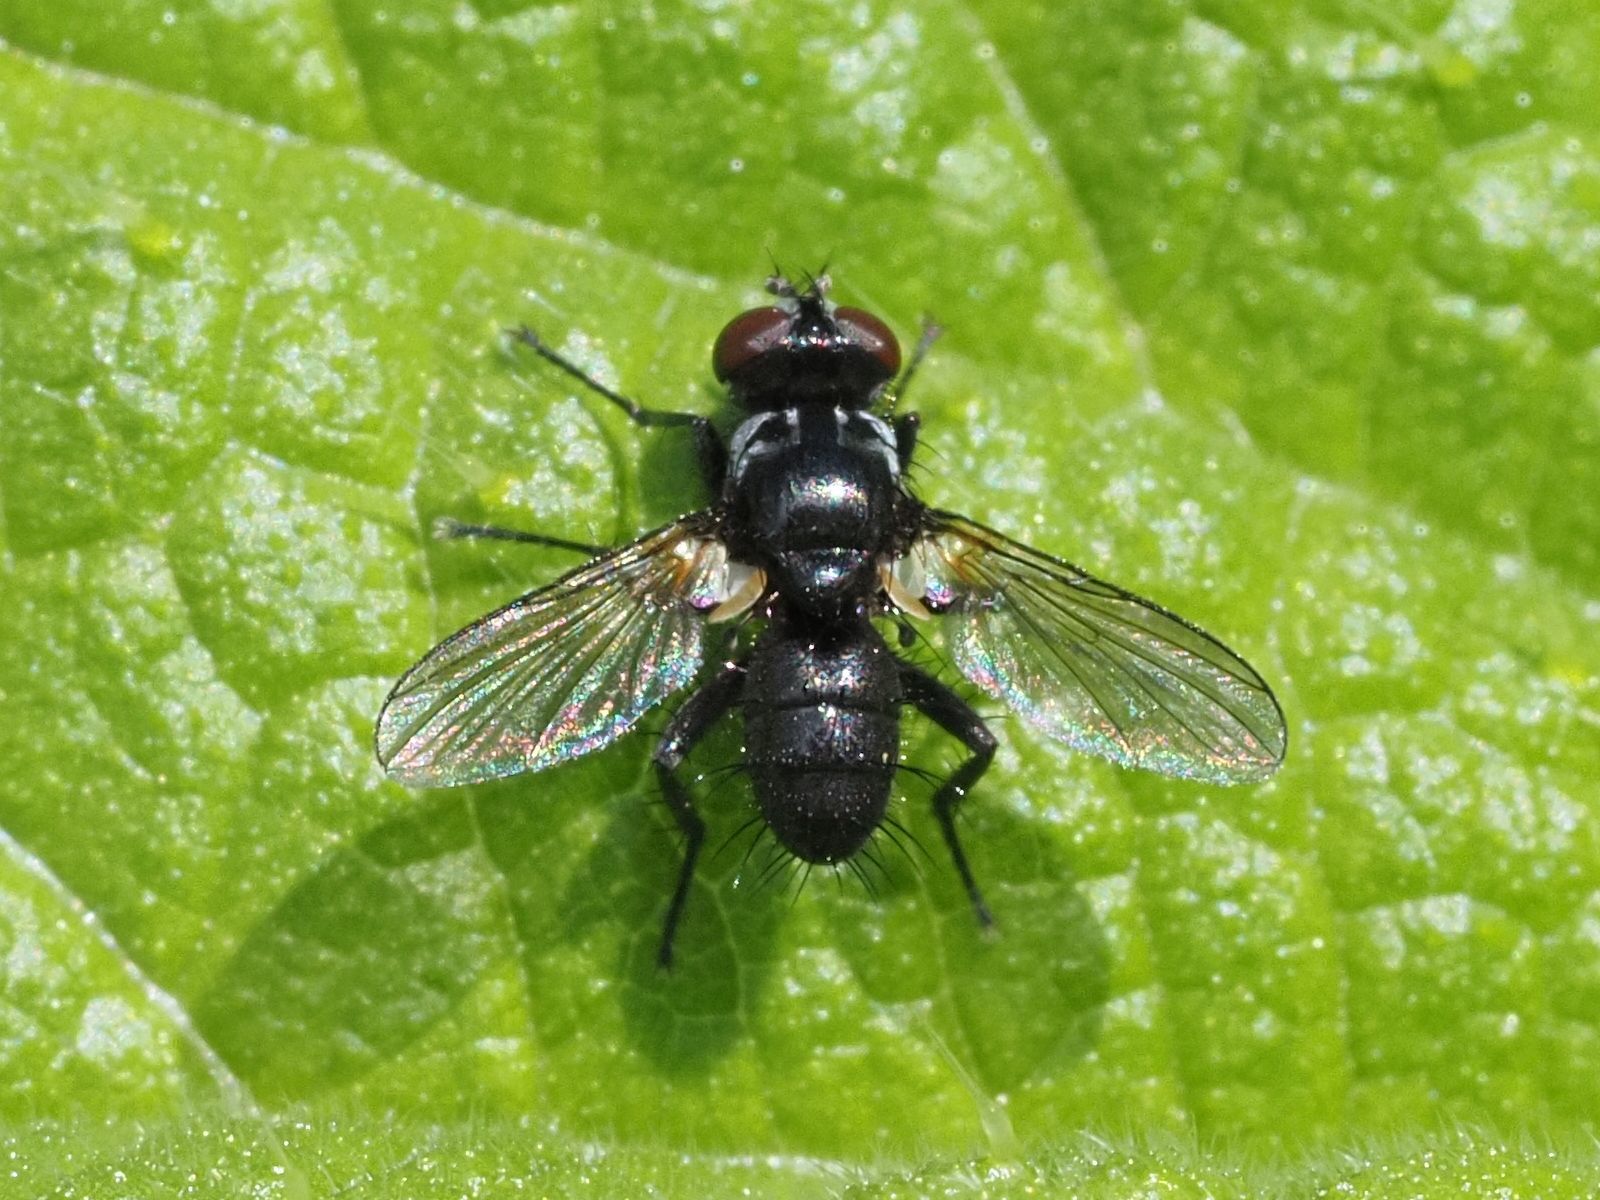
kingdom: Animalia
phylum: Arthropoda
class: Insecta
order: Diptera
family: Tachinidae
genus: Phania
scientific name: Phania funesta
